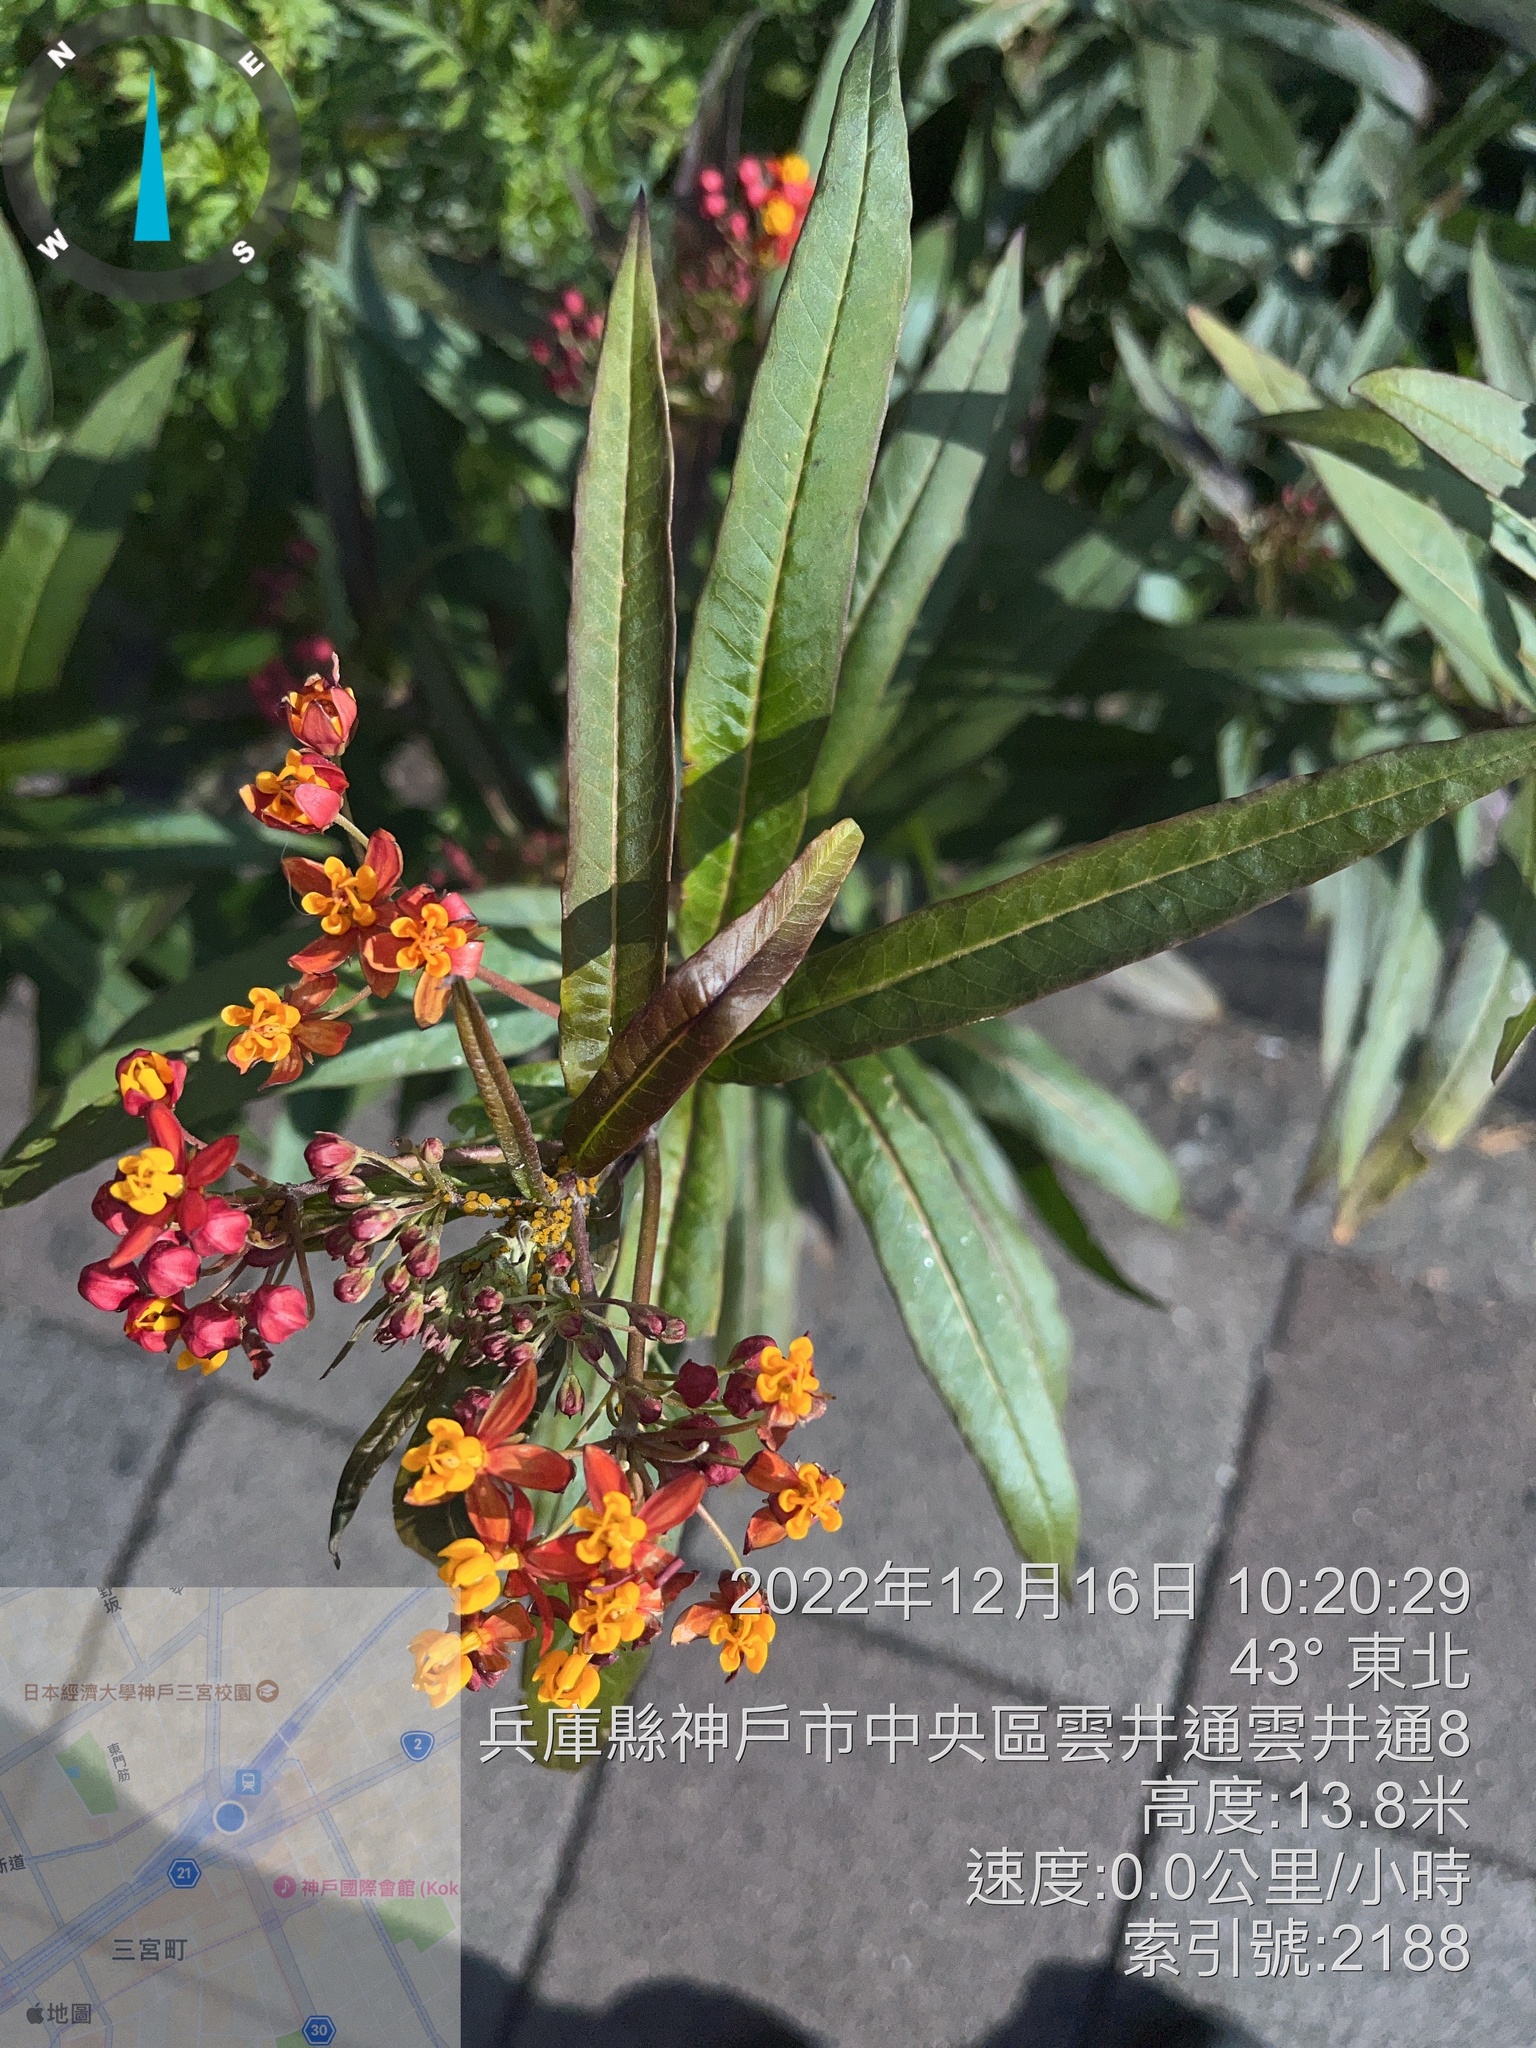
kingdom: Plantae
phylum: Tracheophyta
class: Magnoliopsida
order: Gentianales
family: Apocynaceae
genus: Asclepias
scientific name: Asclepias curassavica
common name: Bloodflower
